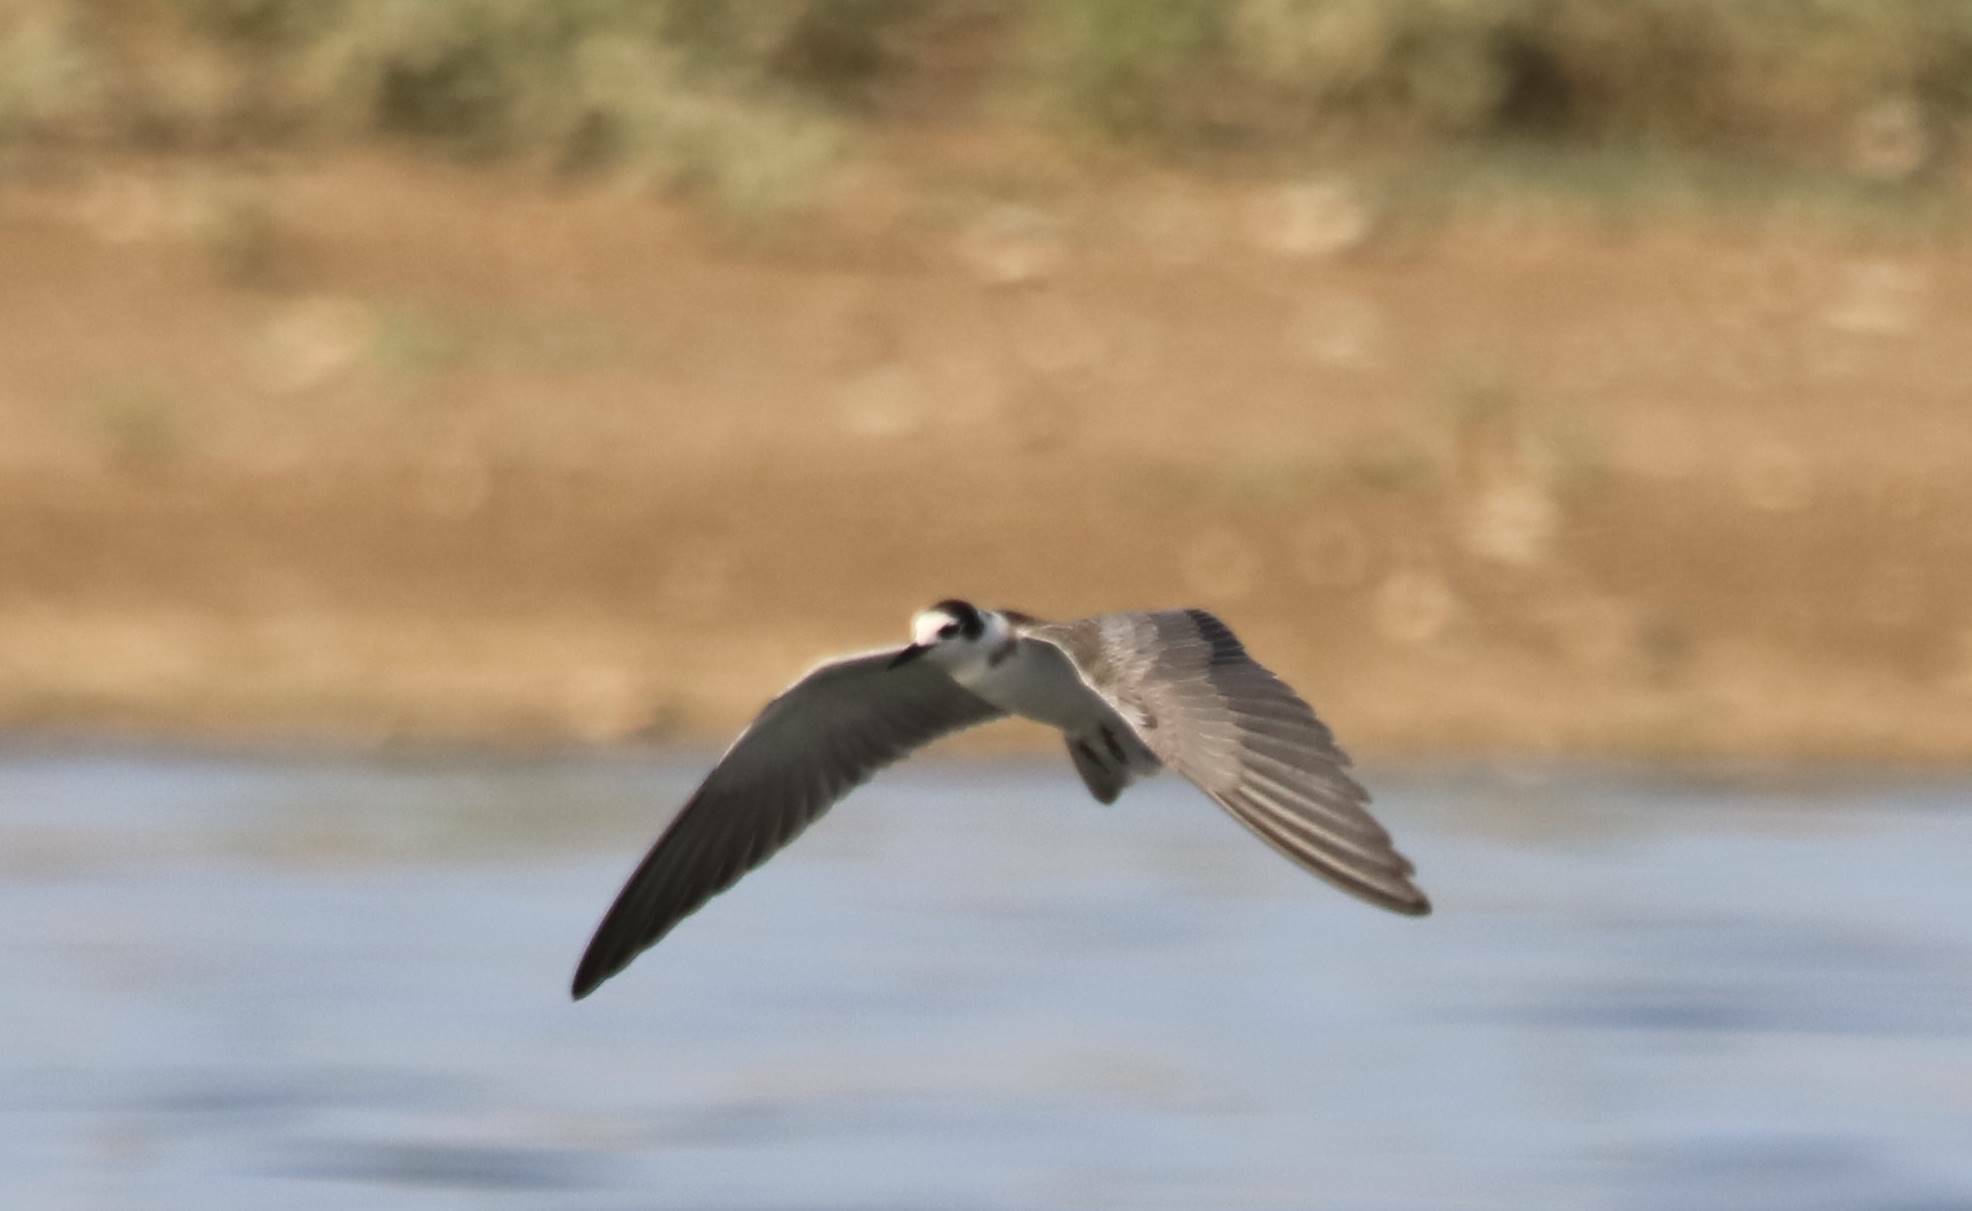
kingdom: Animalia
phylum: Chordata
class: Aves
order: Charadriiformes
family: Laridae
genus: Chlidonias
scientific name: Chlidonias niger
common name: Black tern
